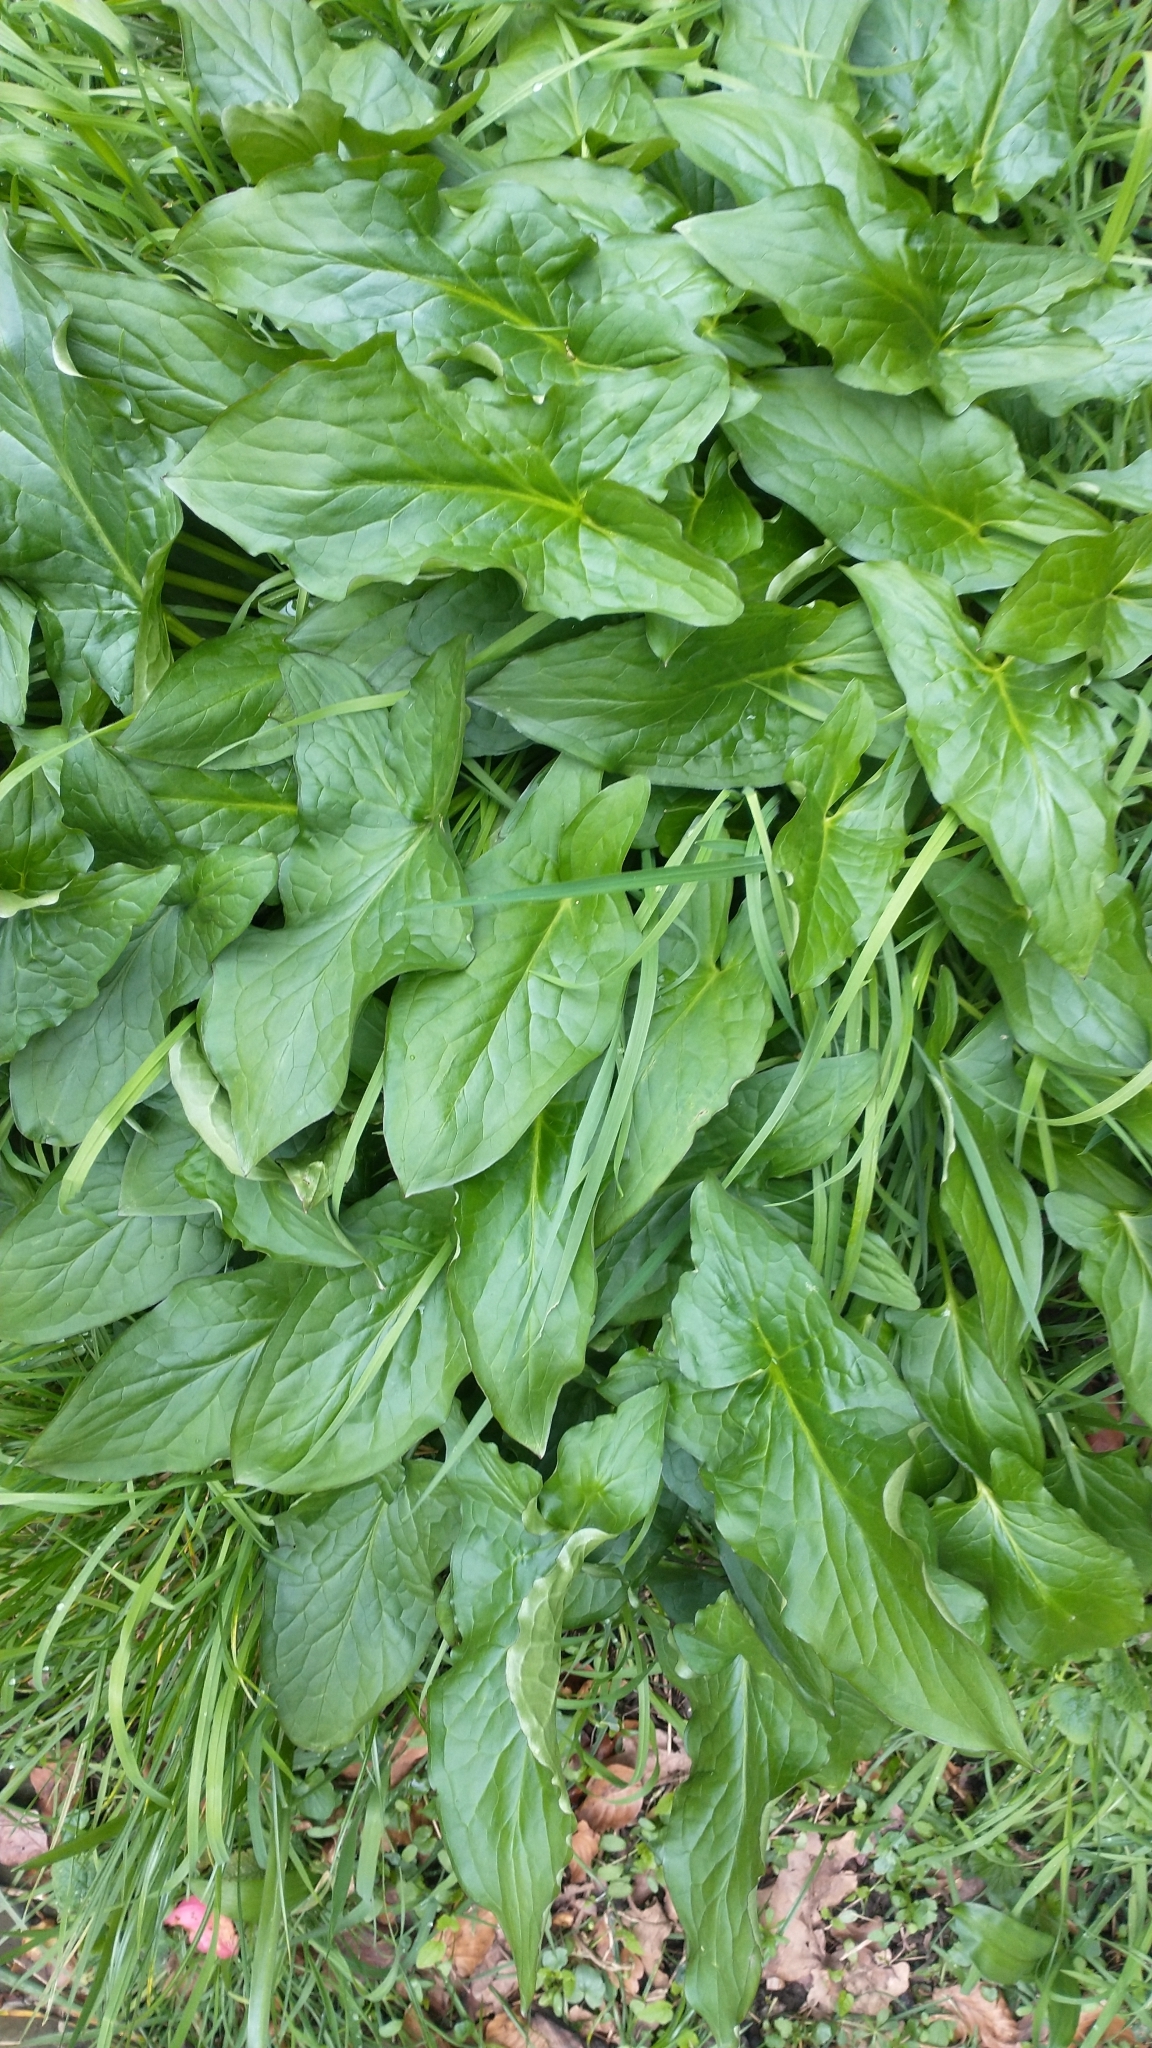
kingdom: Plantae
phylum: Tracheophyta
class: Liliopsida
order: Alismatales
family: Araceae
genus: Arum
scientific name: Arum maculatum
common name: Lords-and-ladies
